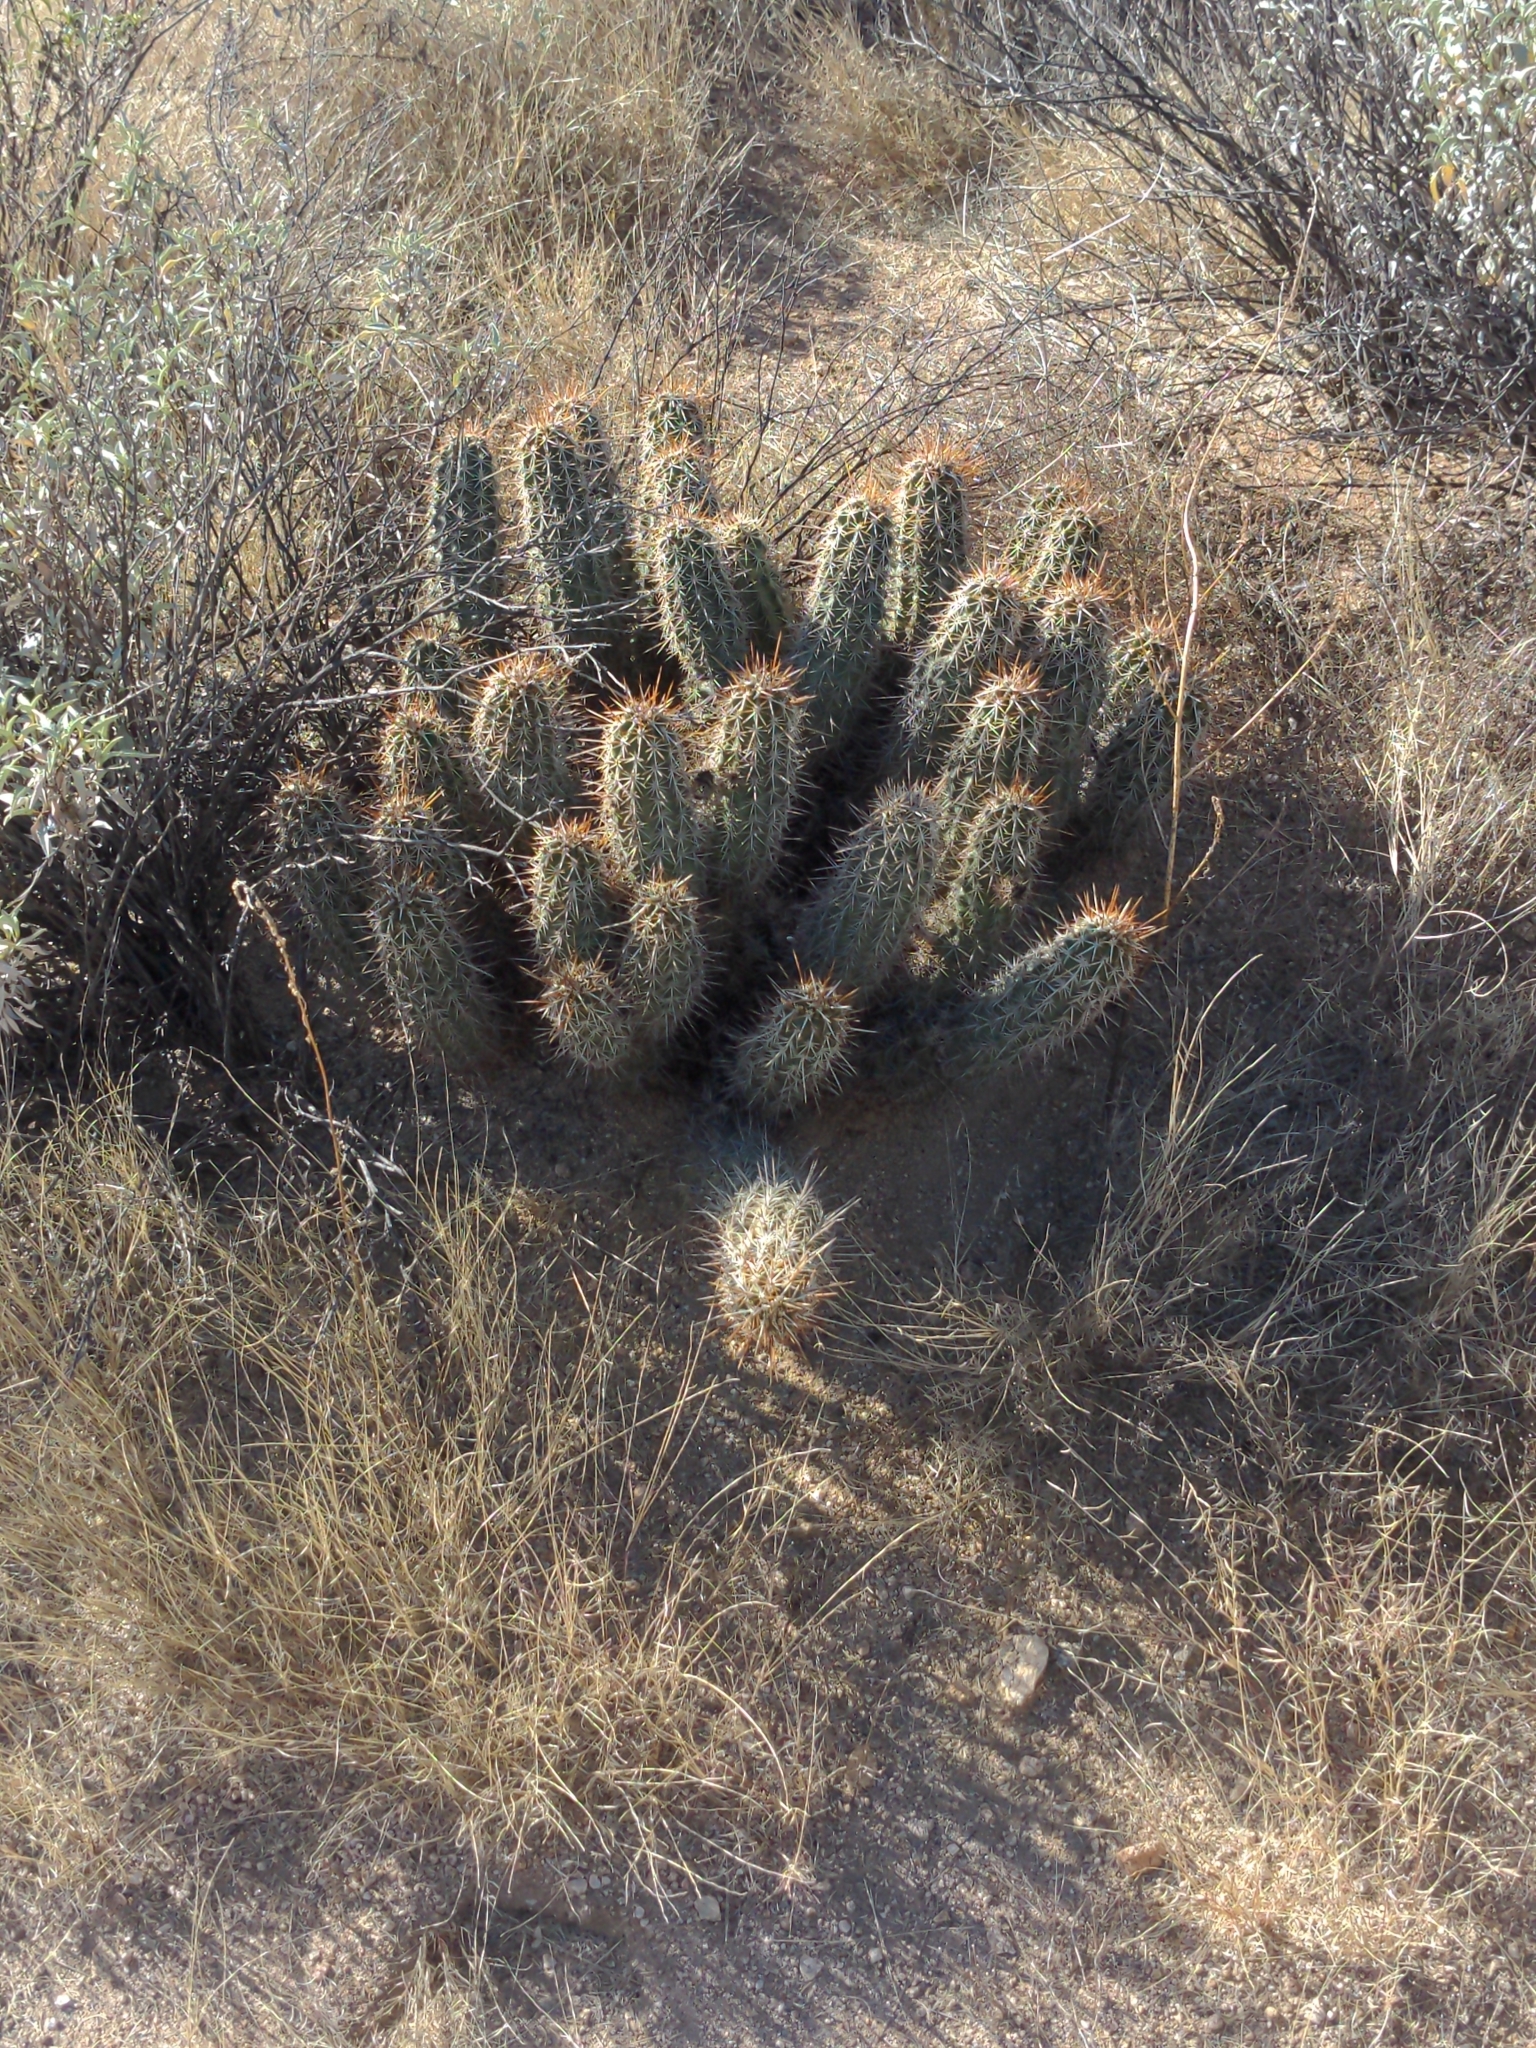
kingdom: Plantae
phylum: Tracheophyta
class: Magnoliopsida
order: Caryophyllales
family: Cactaceae
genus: Echinocereus
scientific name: Echinocereus engelmannii
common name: Engelmann's hedgehog cactus
